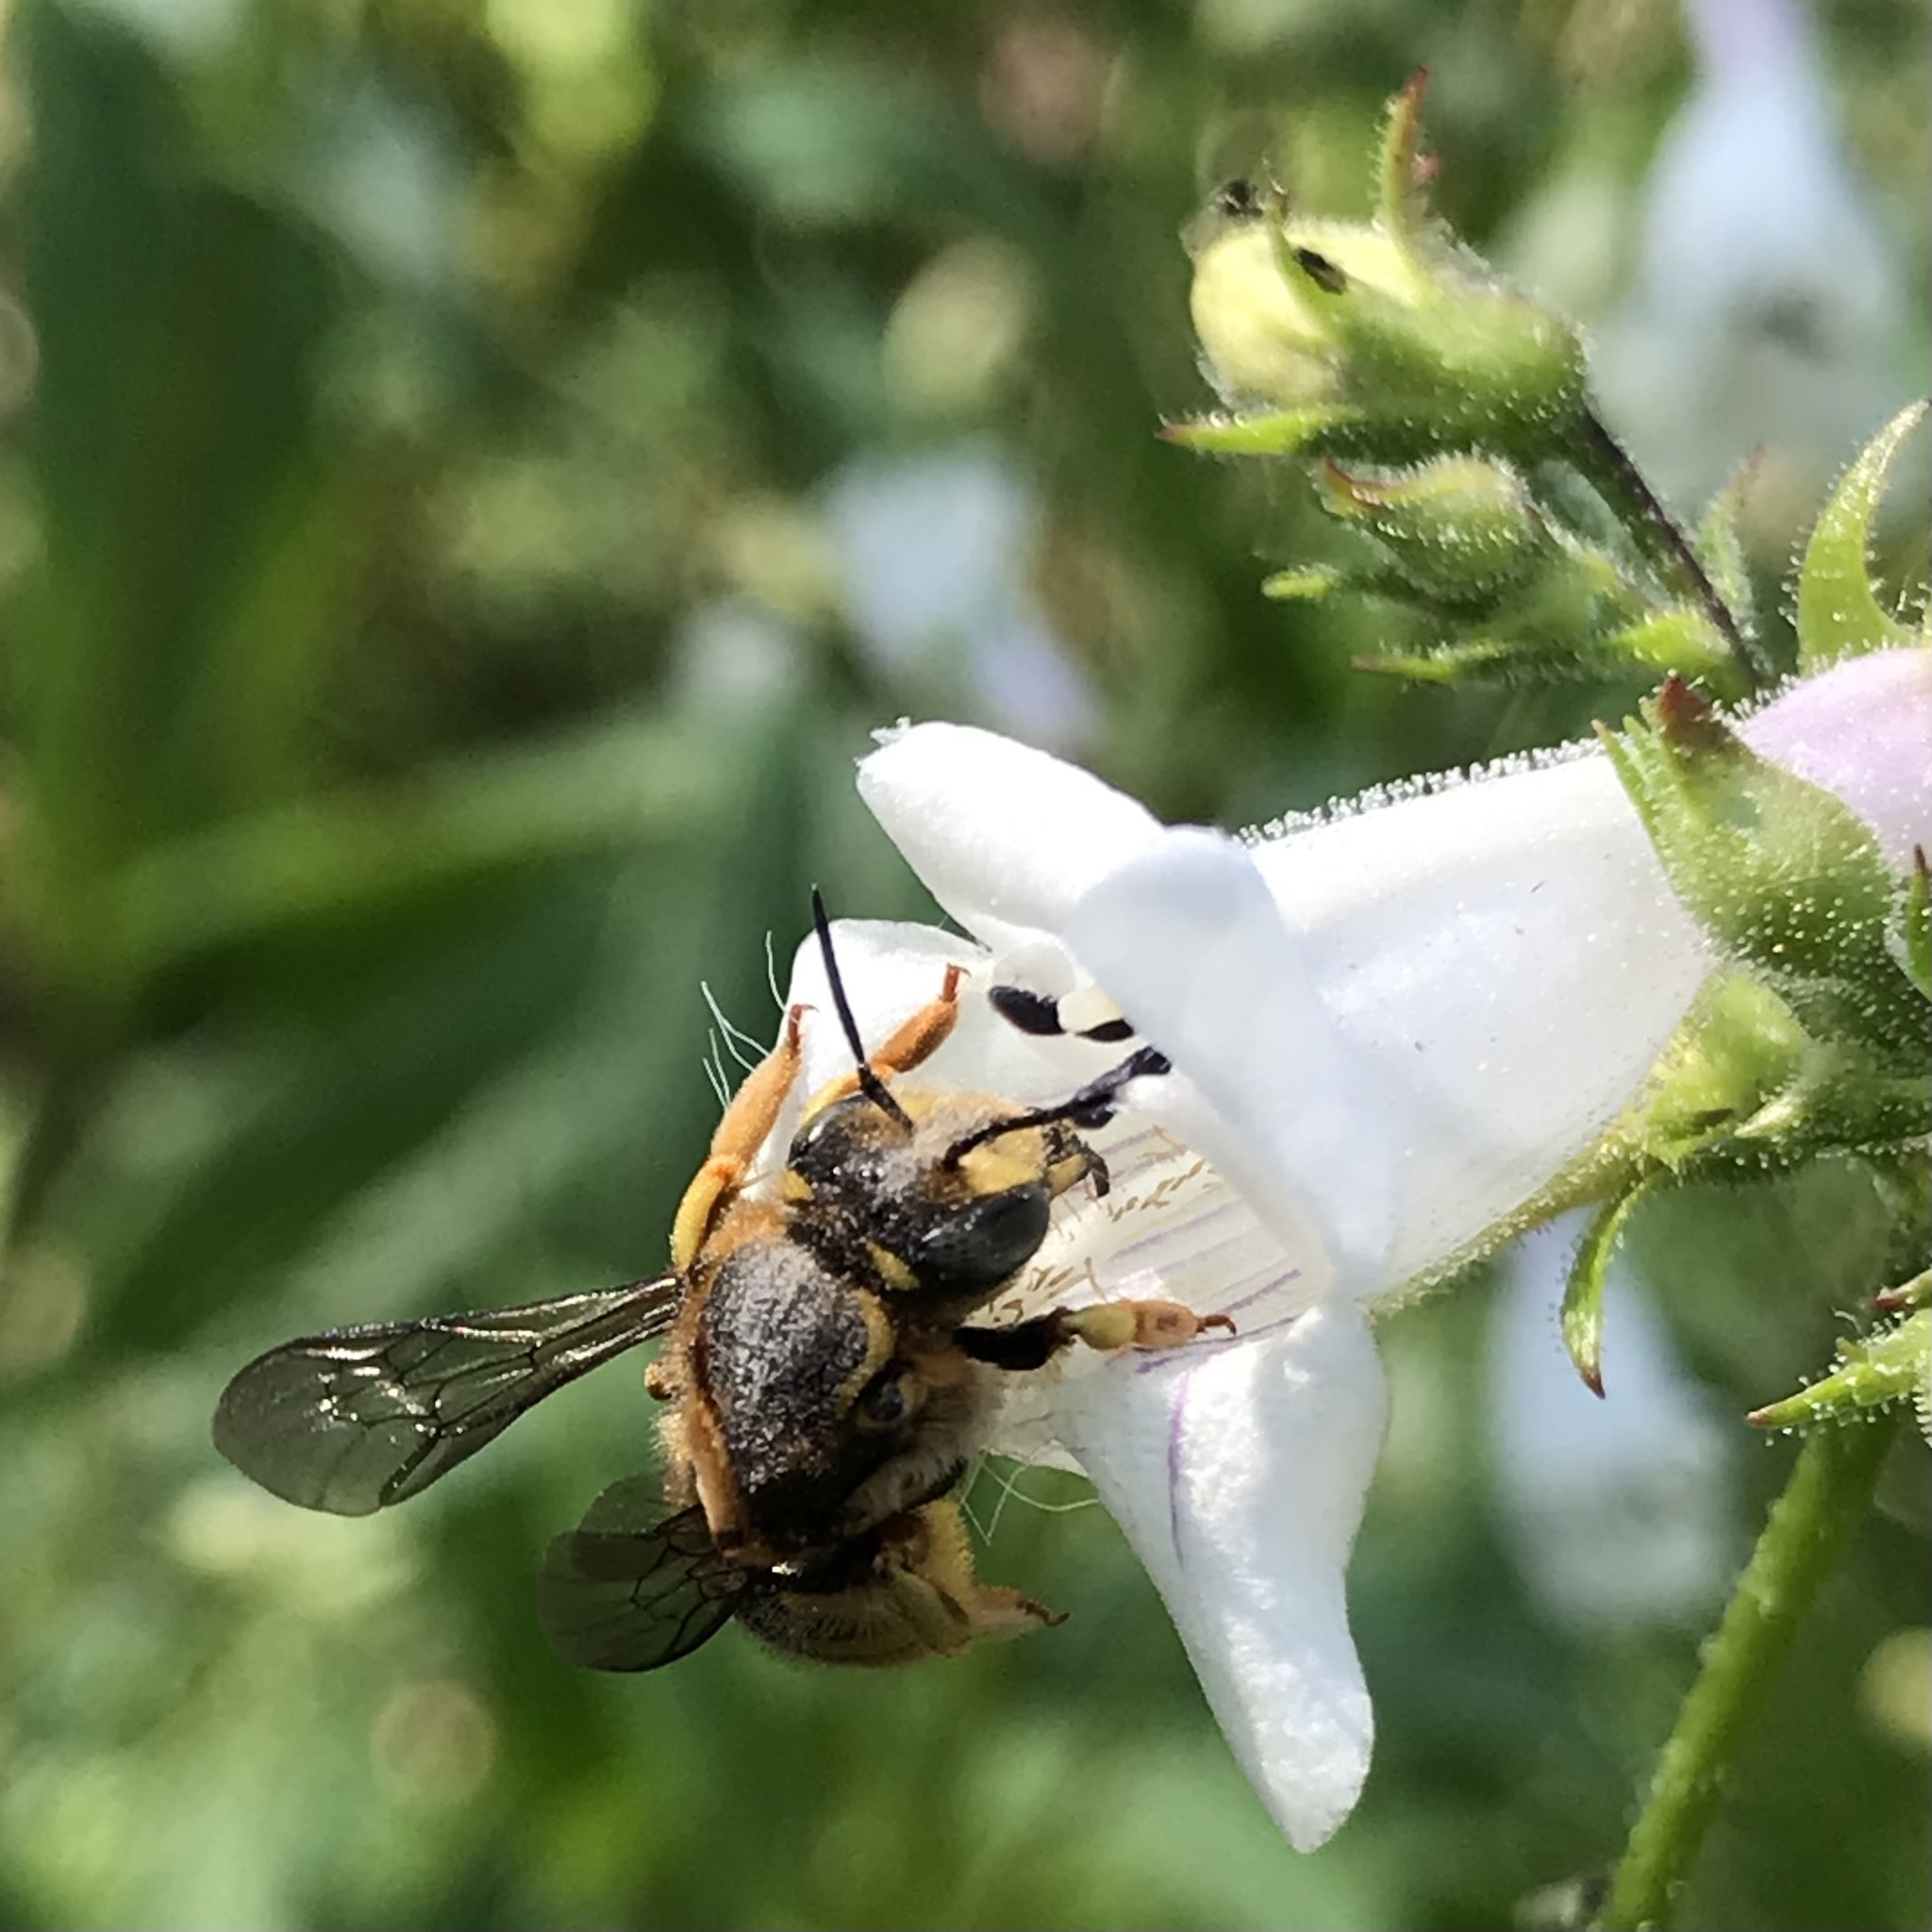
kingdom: Animalia
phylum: Arthropoda
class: Insecta
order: Hymenoptera
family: Megachilidae
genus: Anthidium
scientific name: Anthidium manicatum
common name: Wool carder bee
